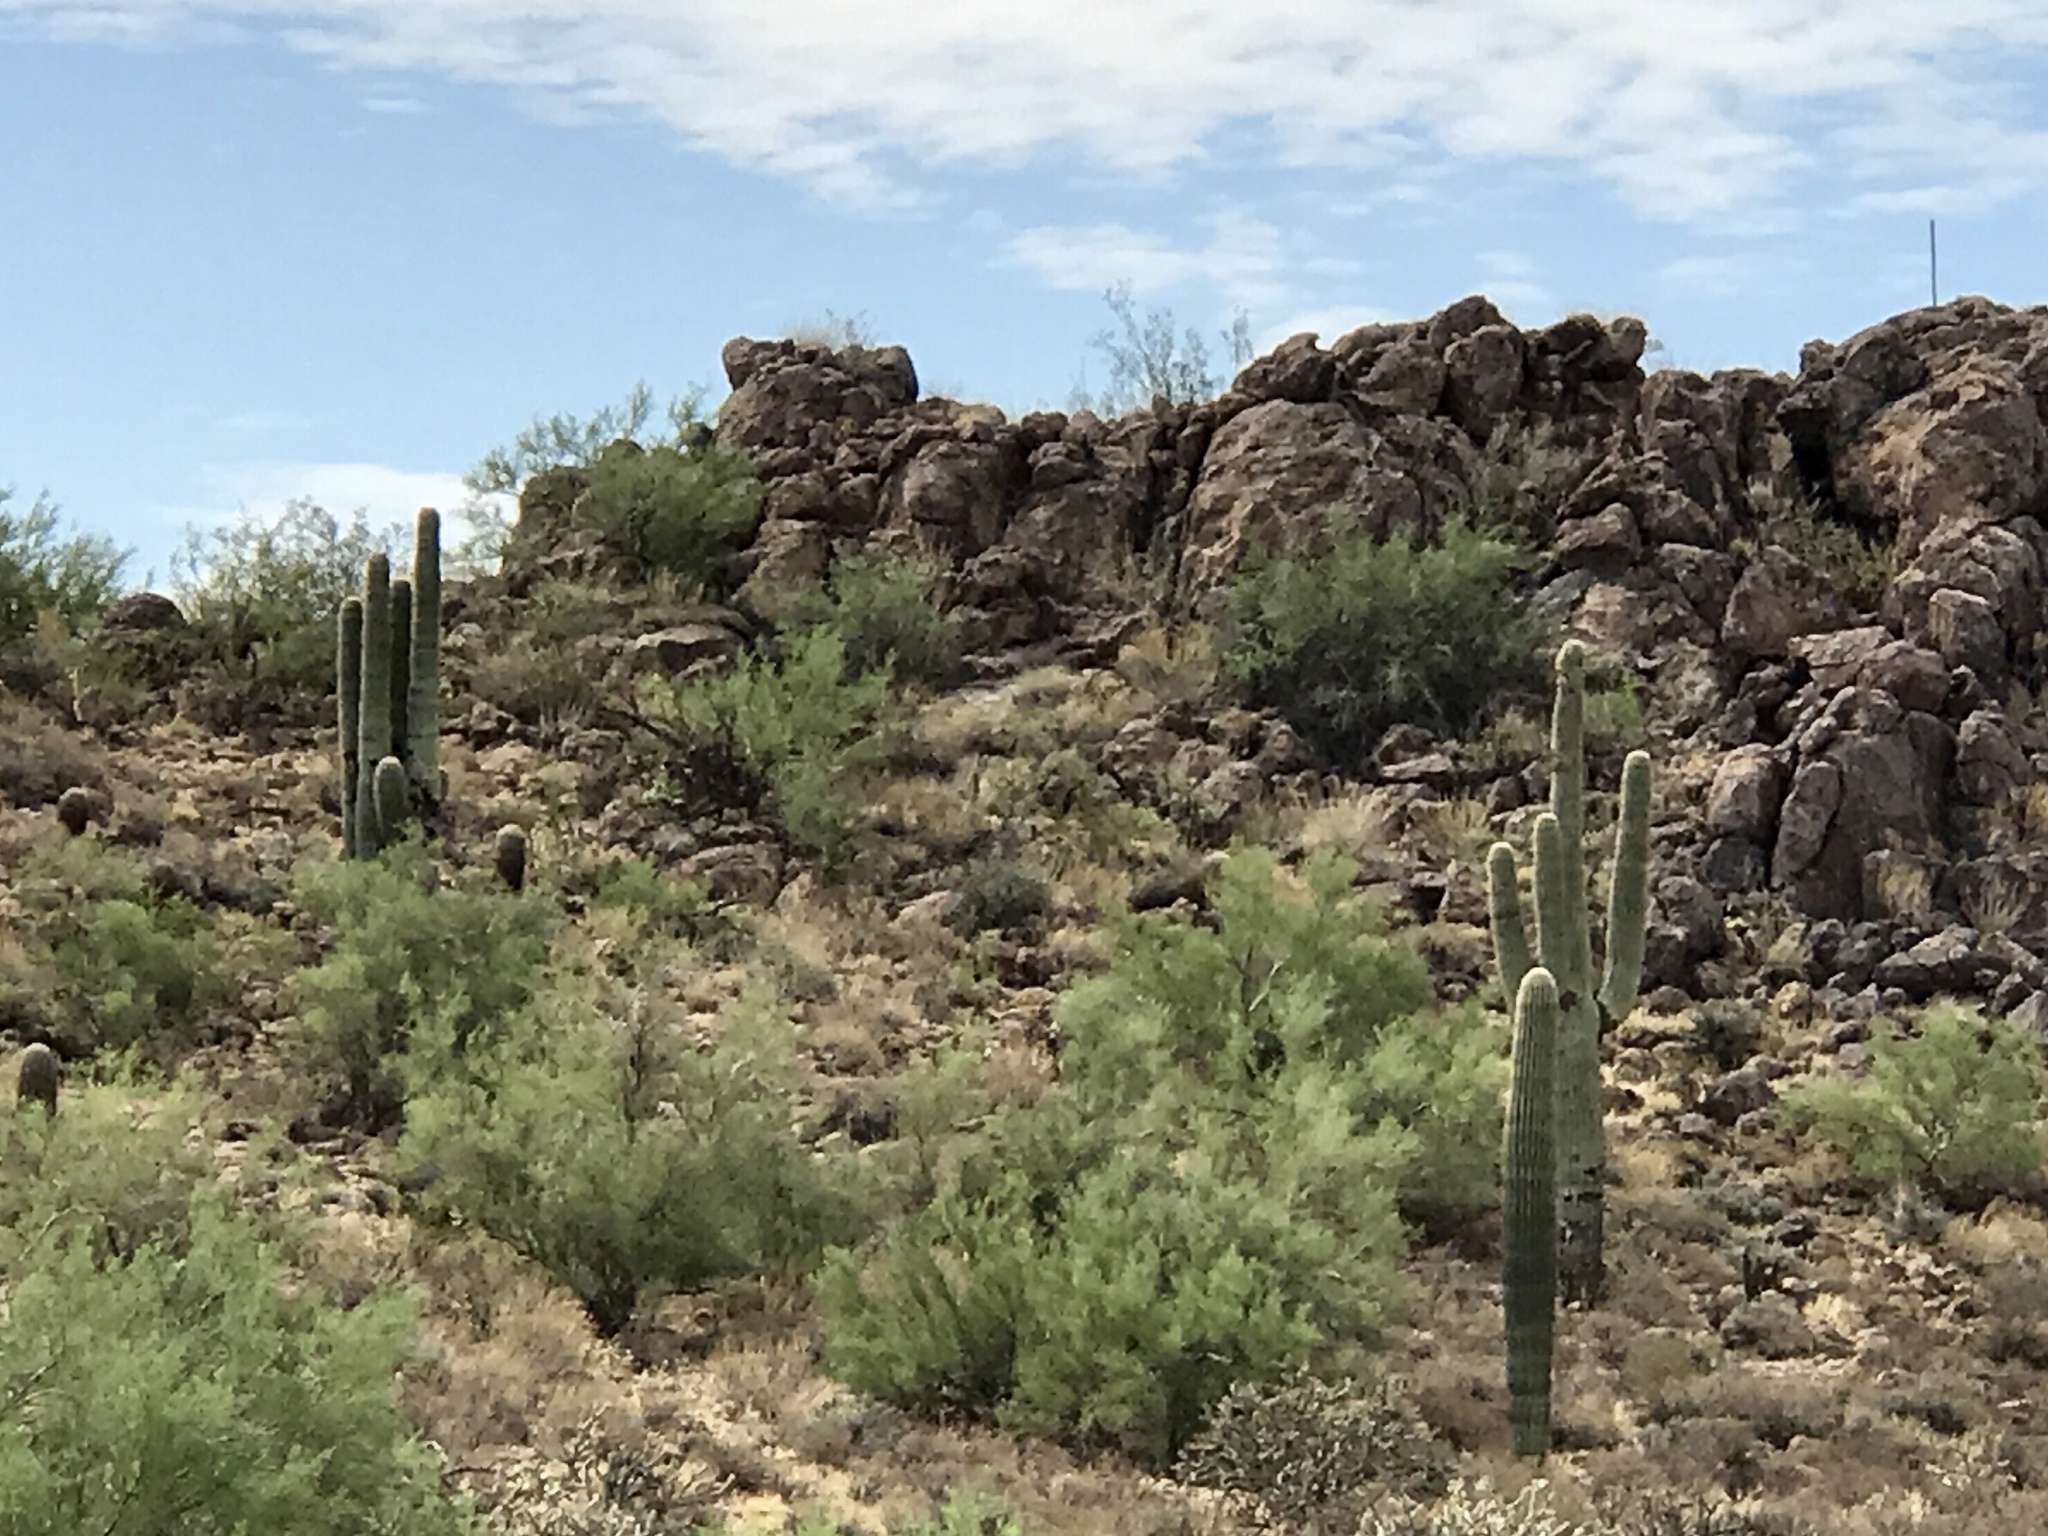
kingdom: Plantae
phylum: Tracheophyta
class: Magnoliopsida
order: Caryophyllales
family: Cactaceae
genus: Carnegiea
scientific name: Carnegiea gigantea
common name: Saguaro
